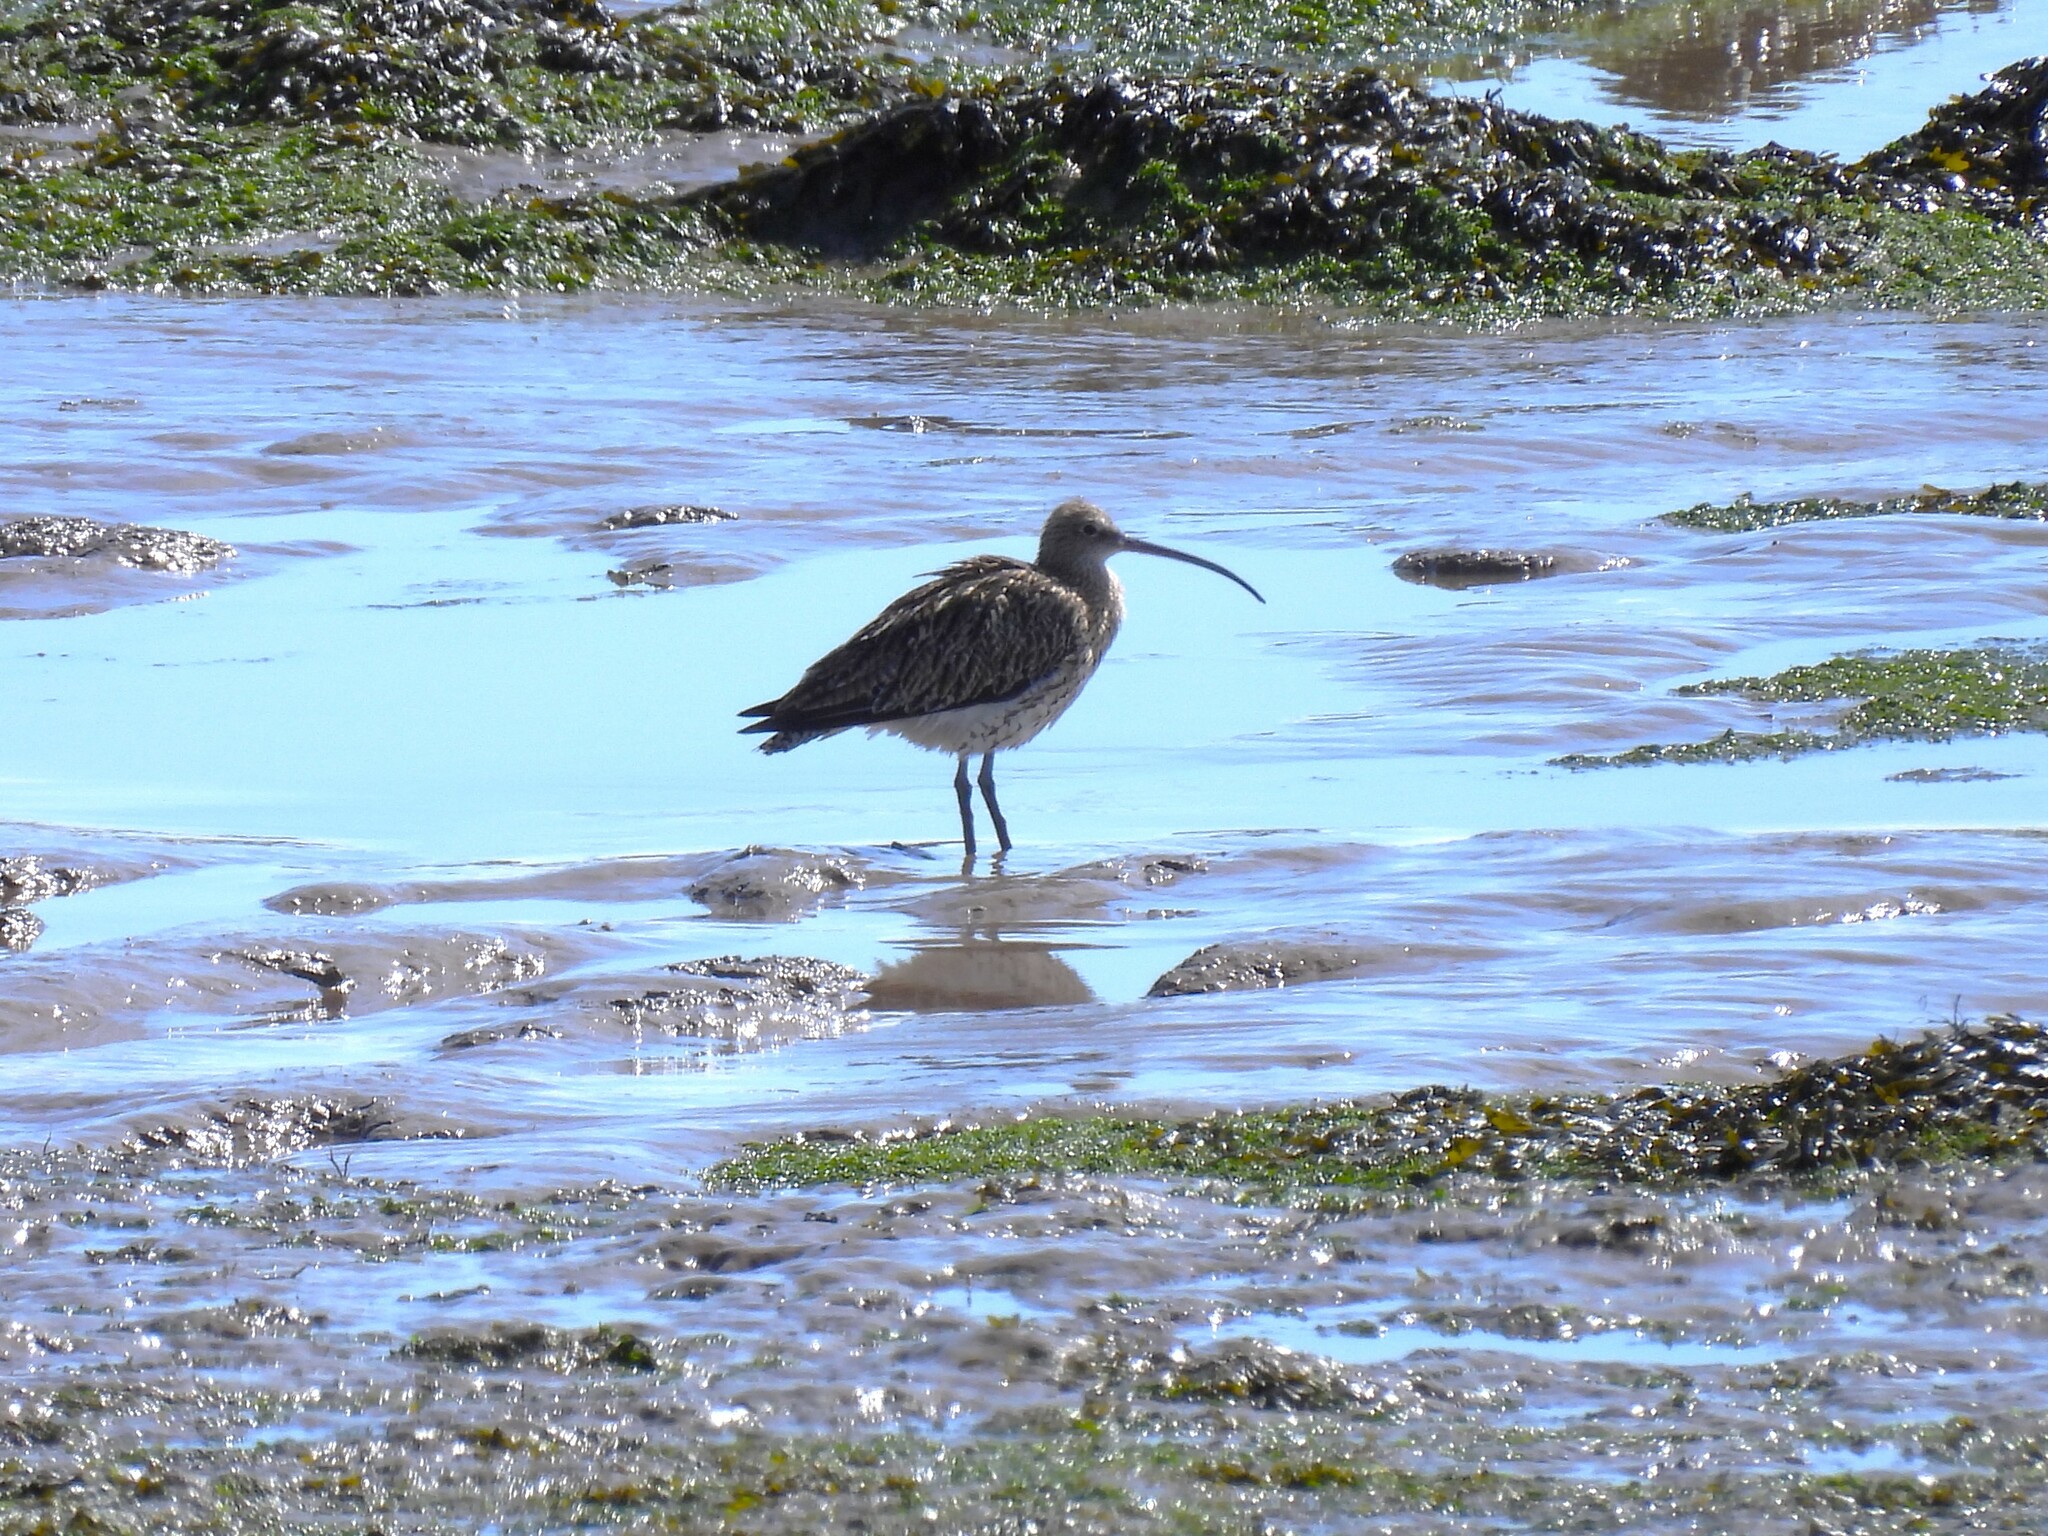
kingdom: Animalia
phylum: Chordata
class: Aves
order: Charadriiformes
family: Scolopacidae
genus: Numenius
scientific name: Numenius arquata
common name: Eurasian curlew
